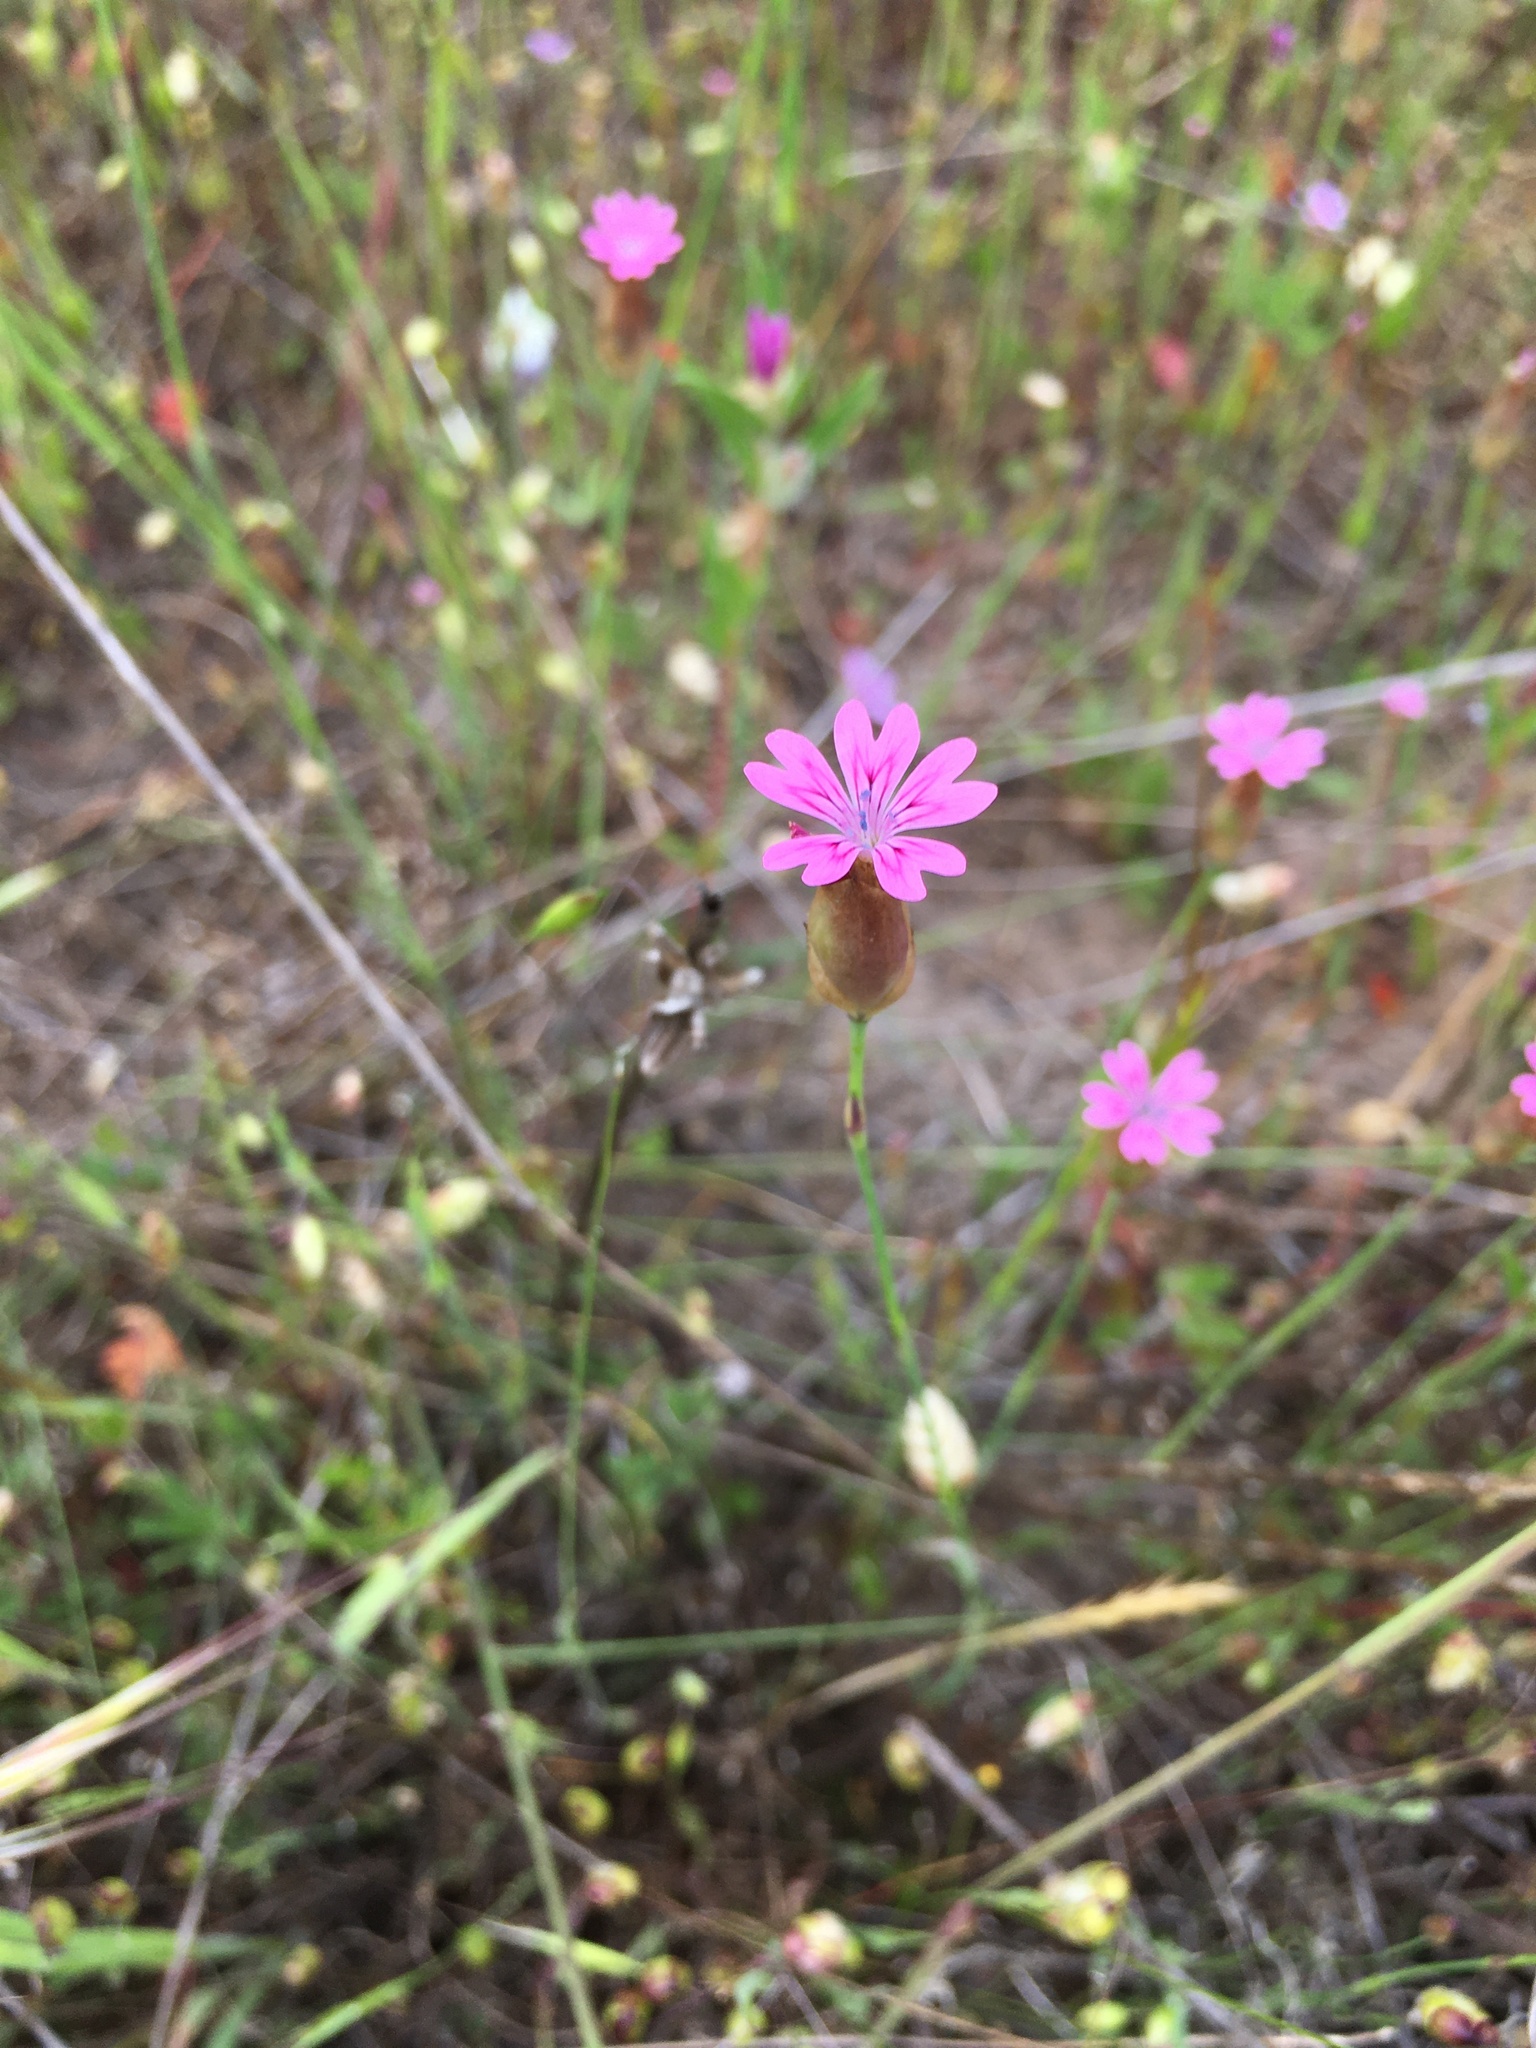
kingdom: Plantae
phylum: Tracheophyta
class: Magnoliopsida
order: Caryophyllales
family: Caryophyllaceae
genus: Petrorhagia
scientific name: Petrorhagia dubia
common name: Hairypink
